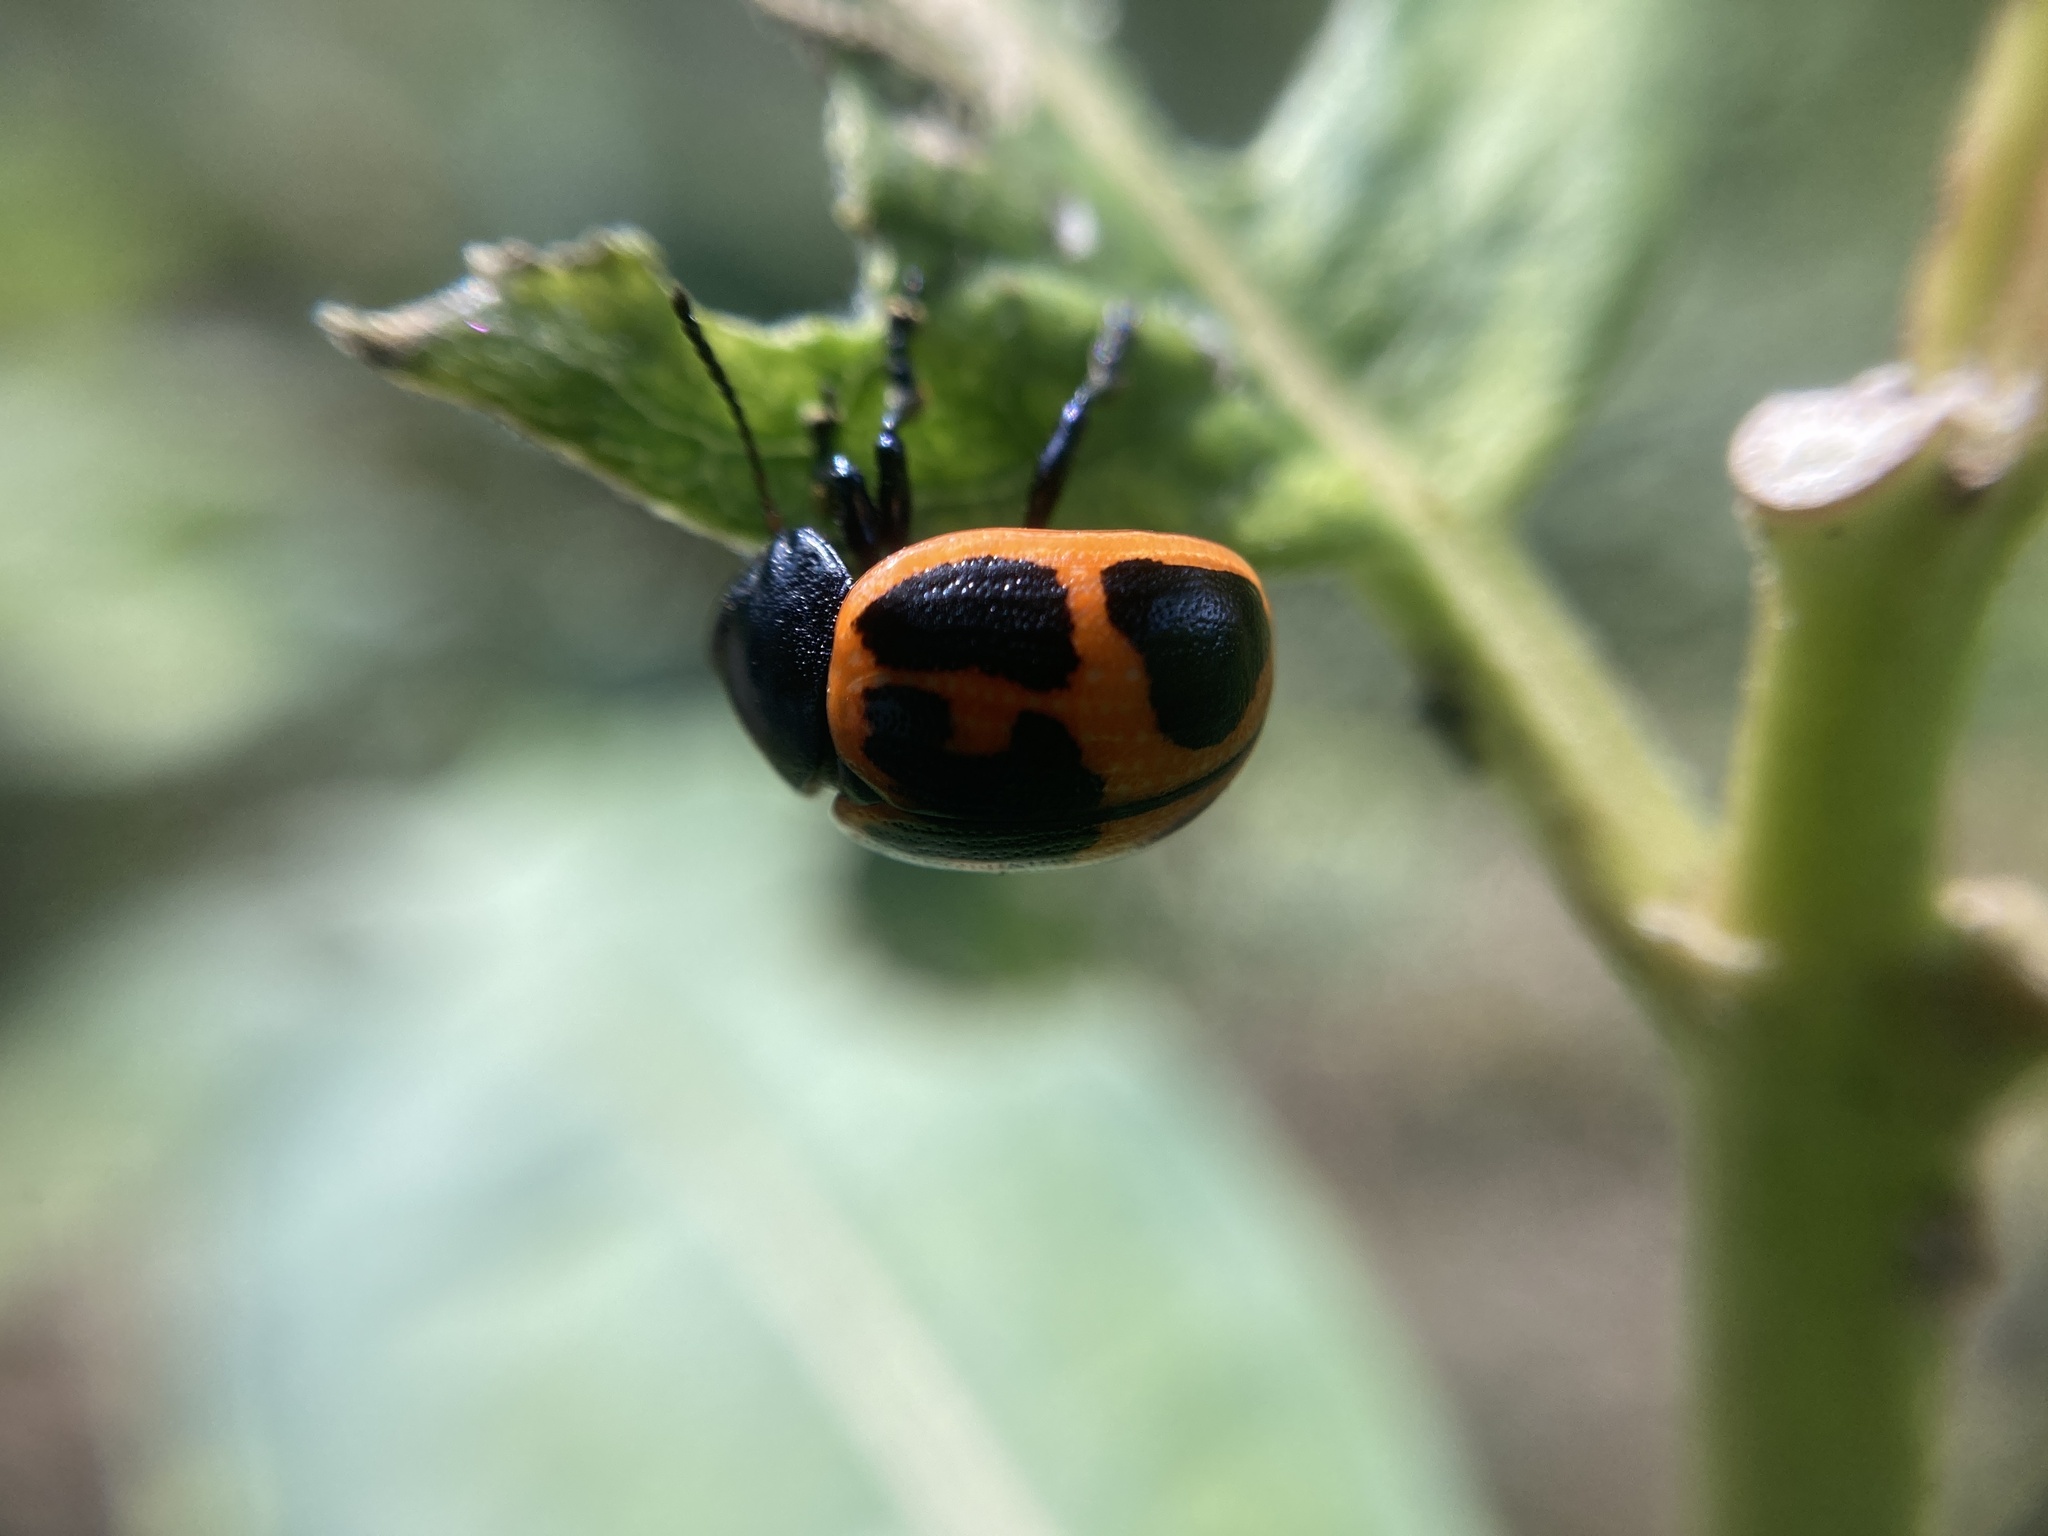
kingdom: Animalia
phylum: Arthropoda
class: Insecta
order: Coleoptera
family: Chrysomelidae
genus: Labidomera
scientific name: Labidomera clivicollis
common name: Swamp milkweed leaf beetle
